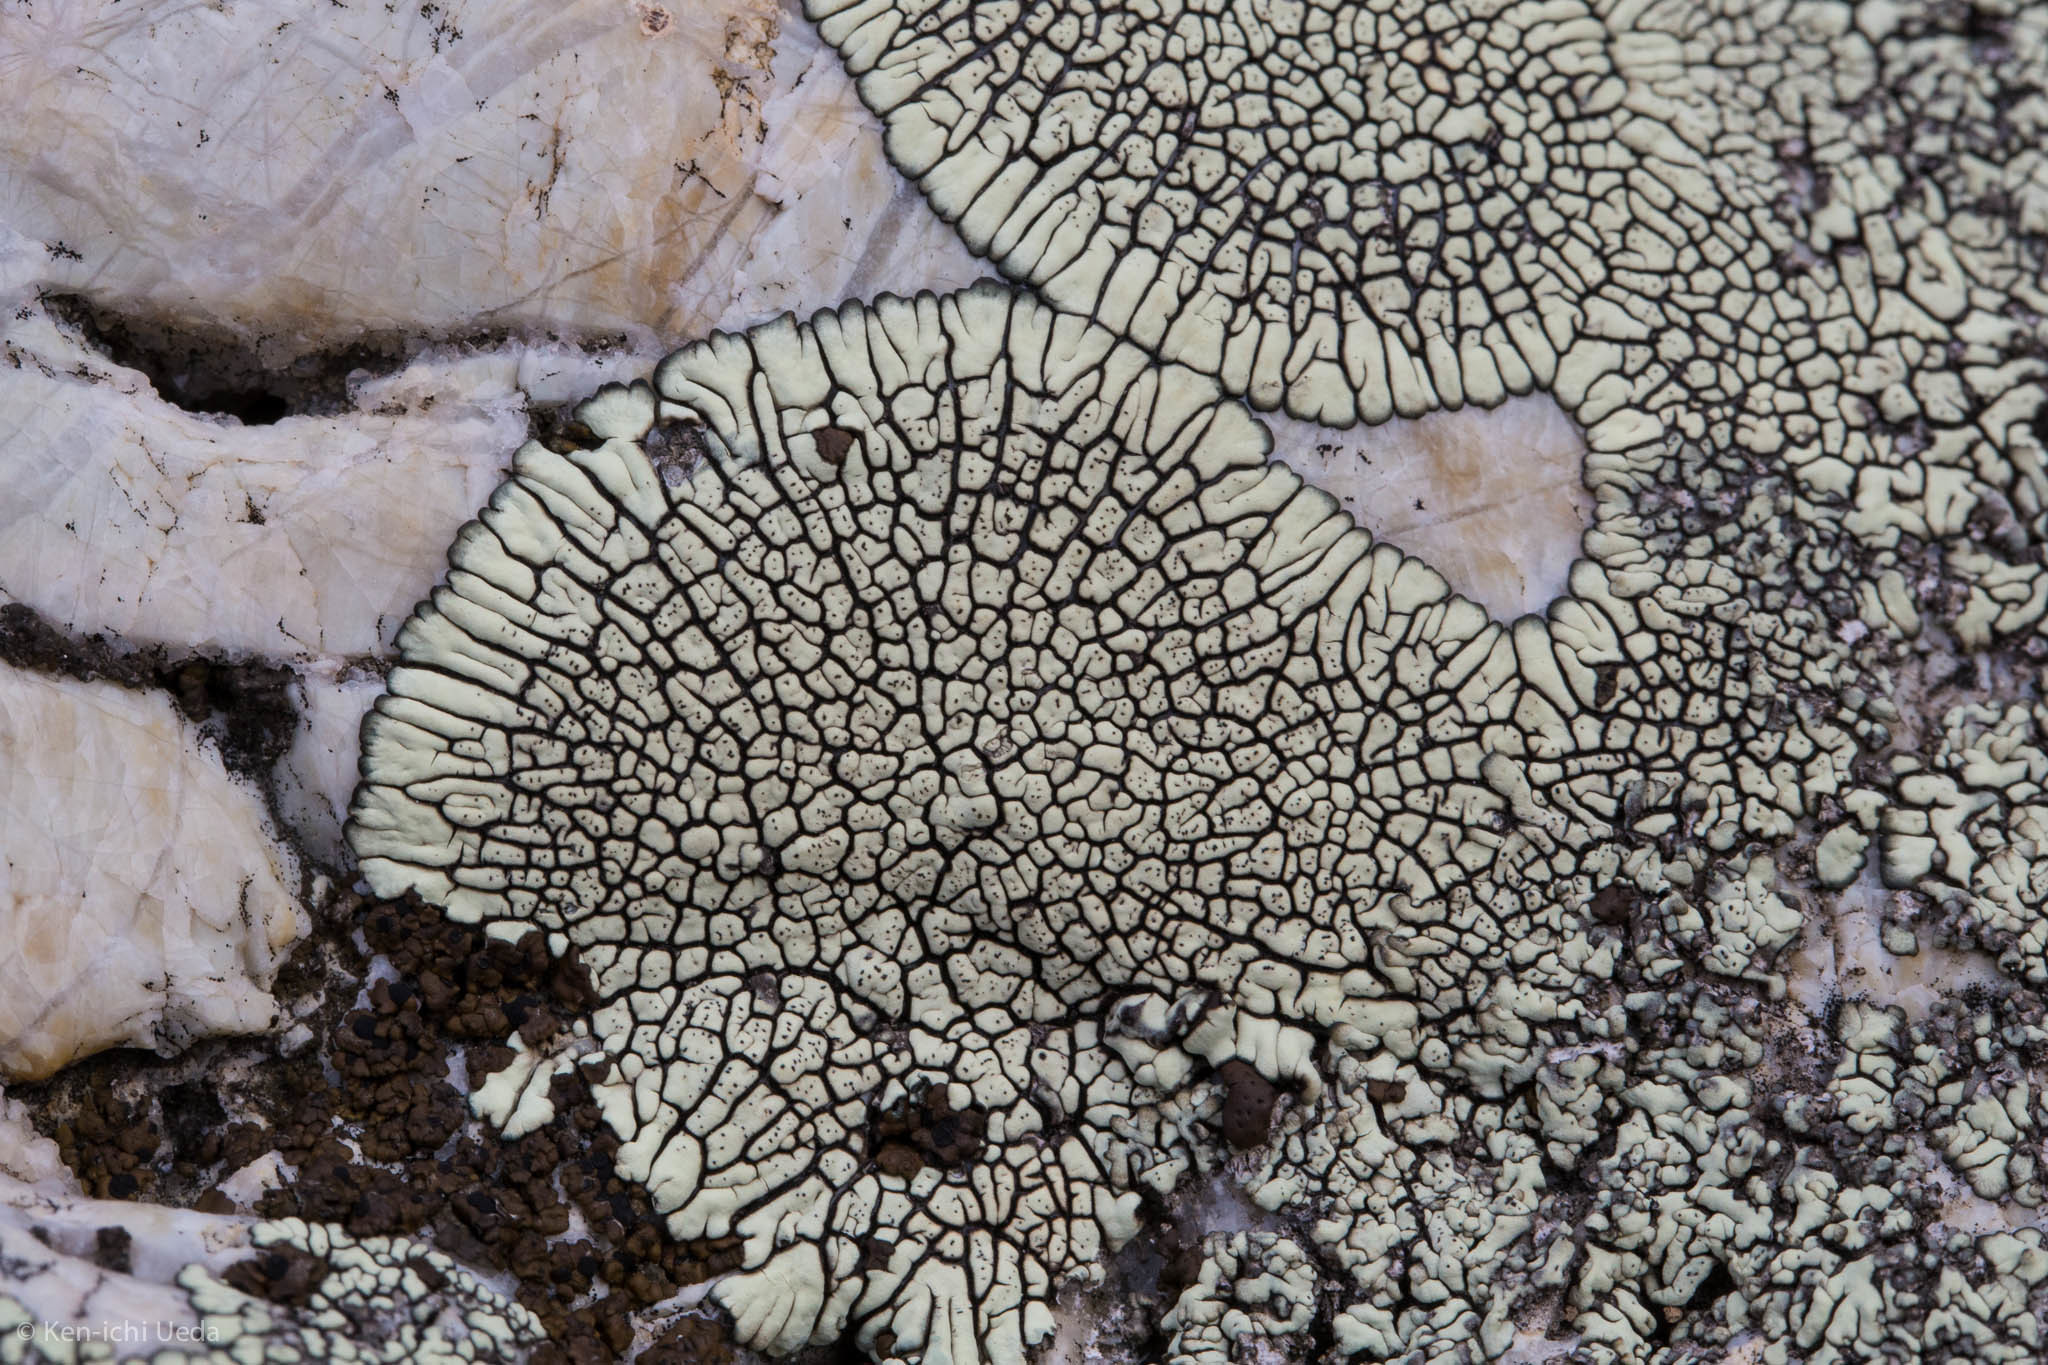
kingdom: Fungi
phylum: Ascomycota
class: Lecanoromycetes
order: Caliciales
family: Caliciaceae
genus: Dimelaena
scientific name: Dimelaena oreina
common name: Golden moonglow lichen
